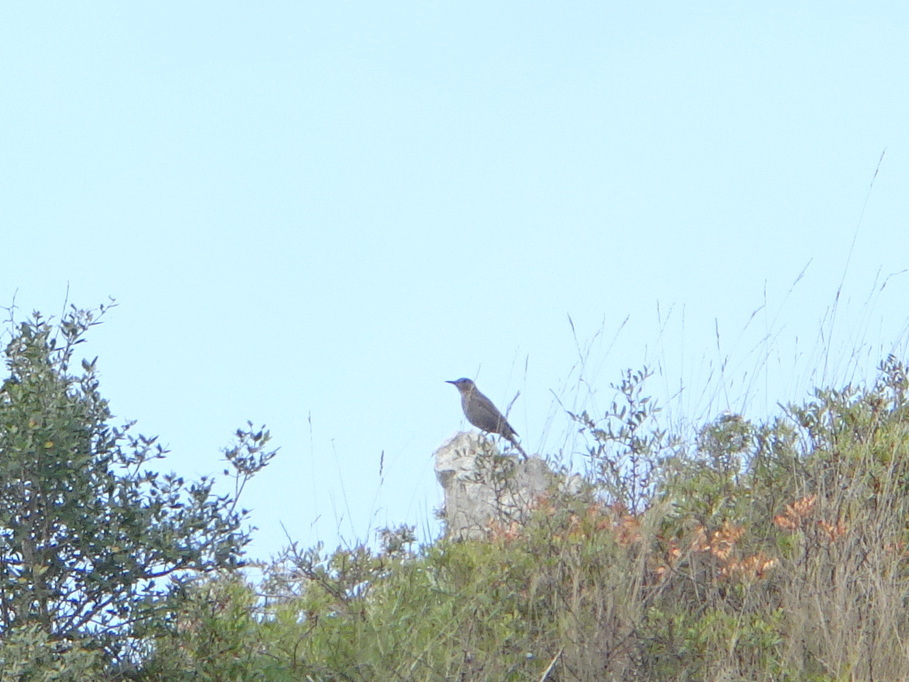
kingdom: Animalia
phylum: Chordata
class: Aves
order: Passeriformes
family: Muscicapidae
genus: Monticola
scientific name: Monticola solitarius
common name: Blue rock thrush
